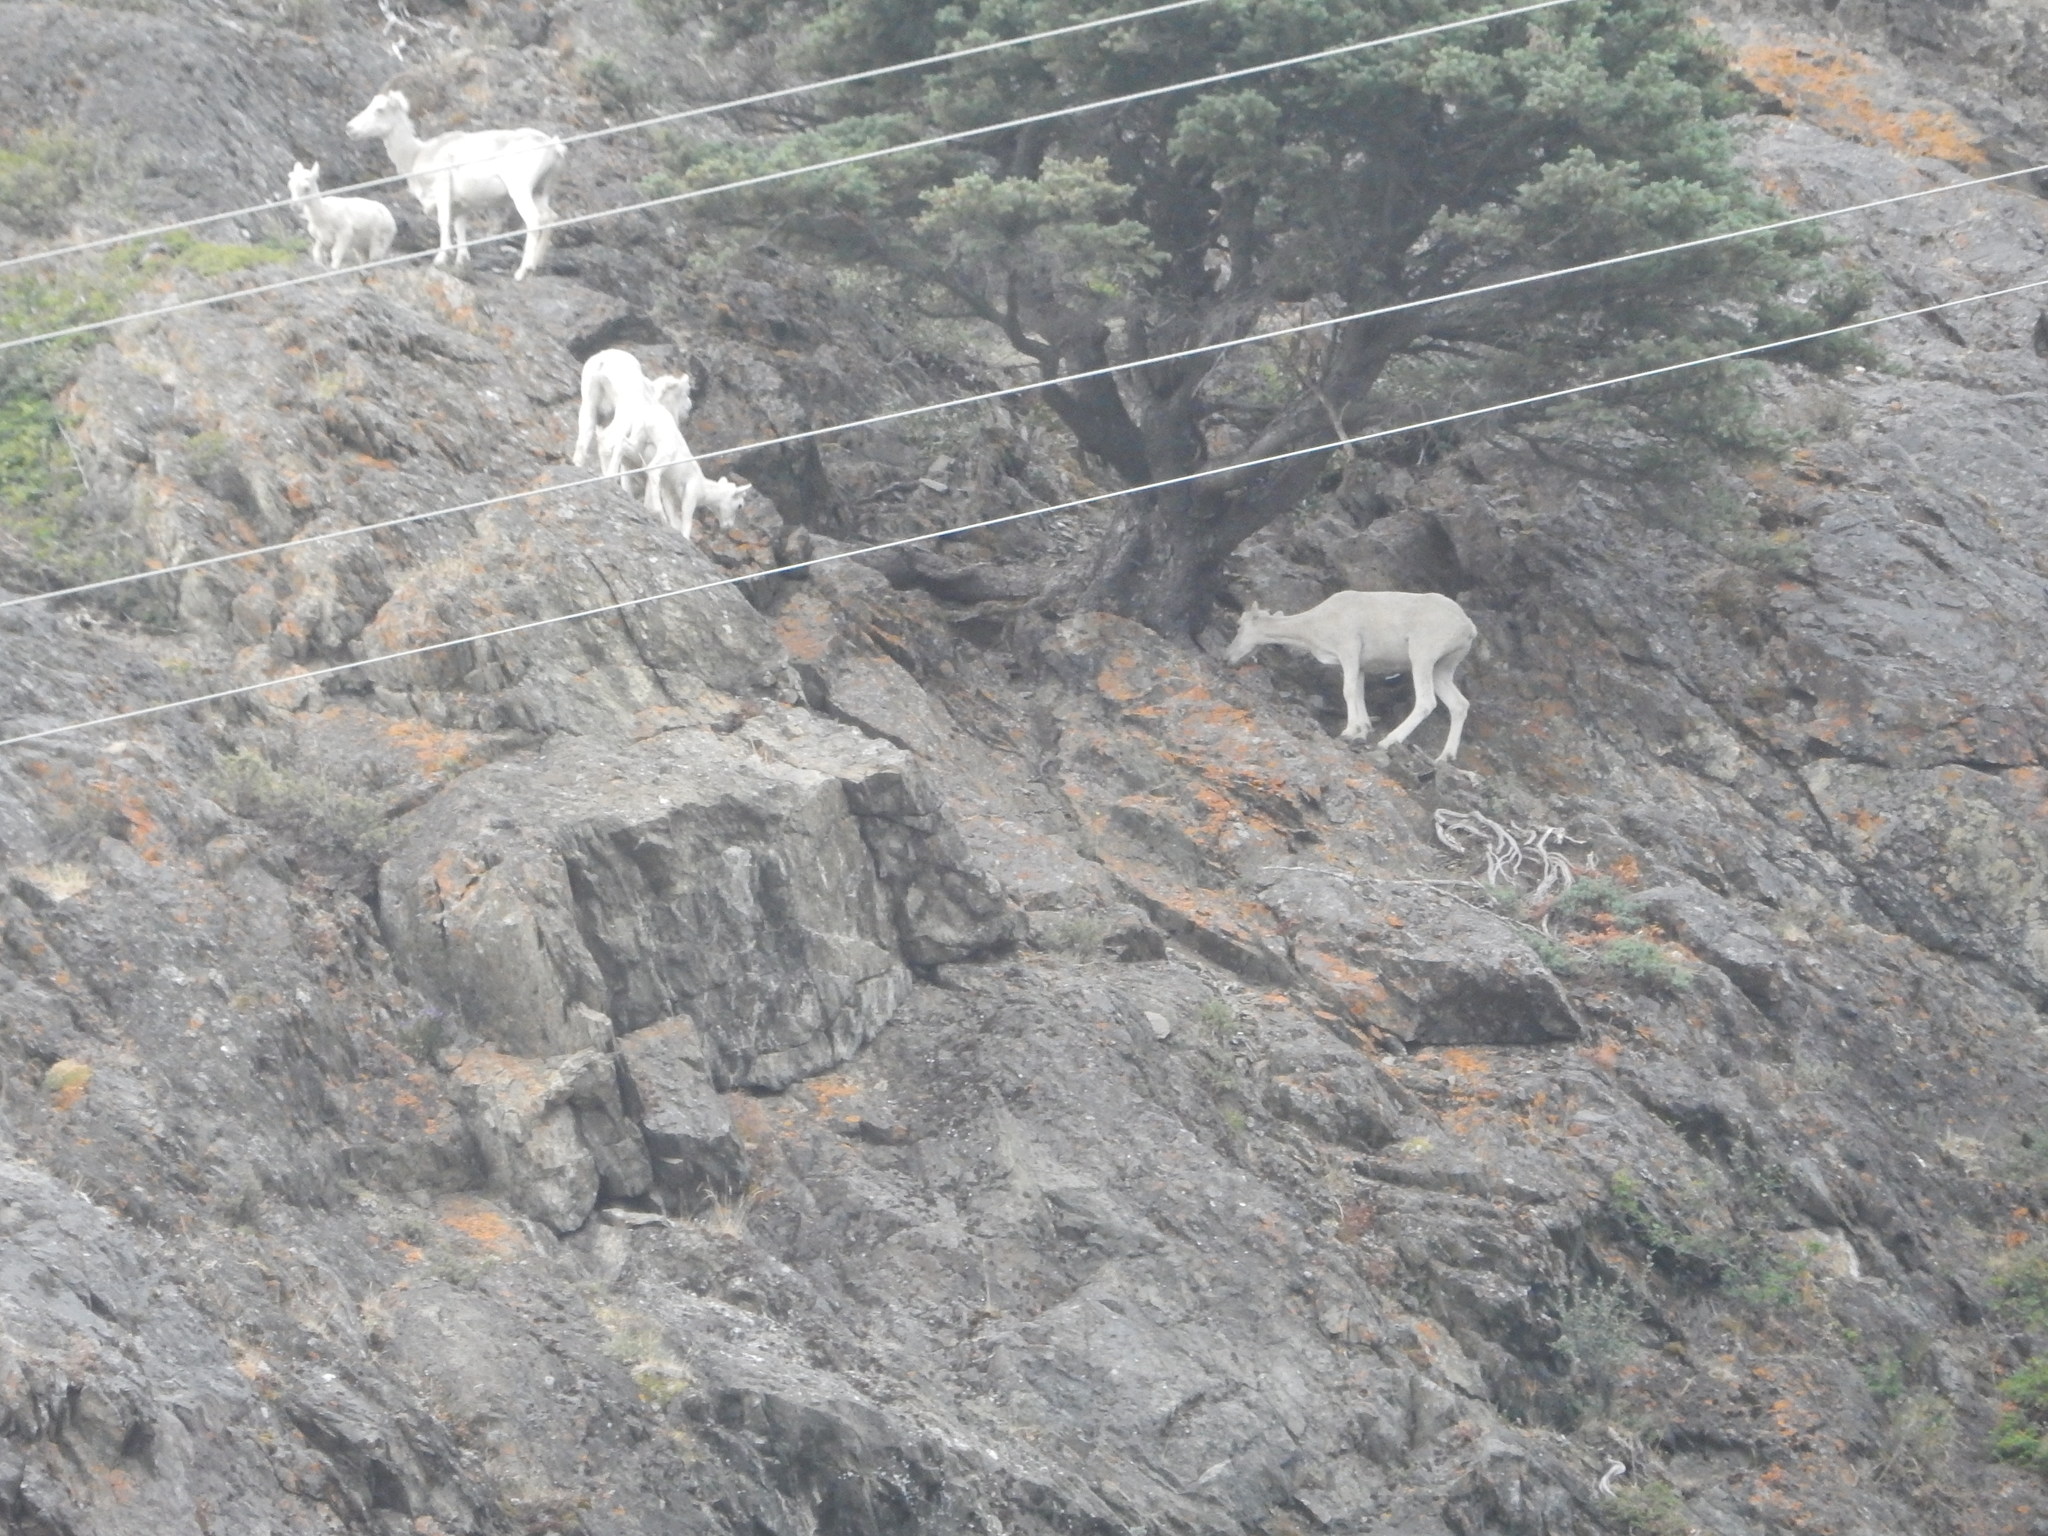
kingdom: Animalia
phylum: Chordata
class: Mammalia
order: Artiodactyla
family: Bovidae
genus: Ovis
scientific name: Ovis dalli
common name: Dall's sheep
